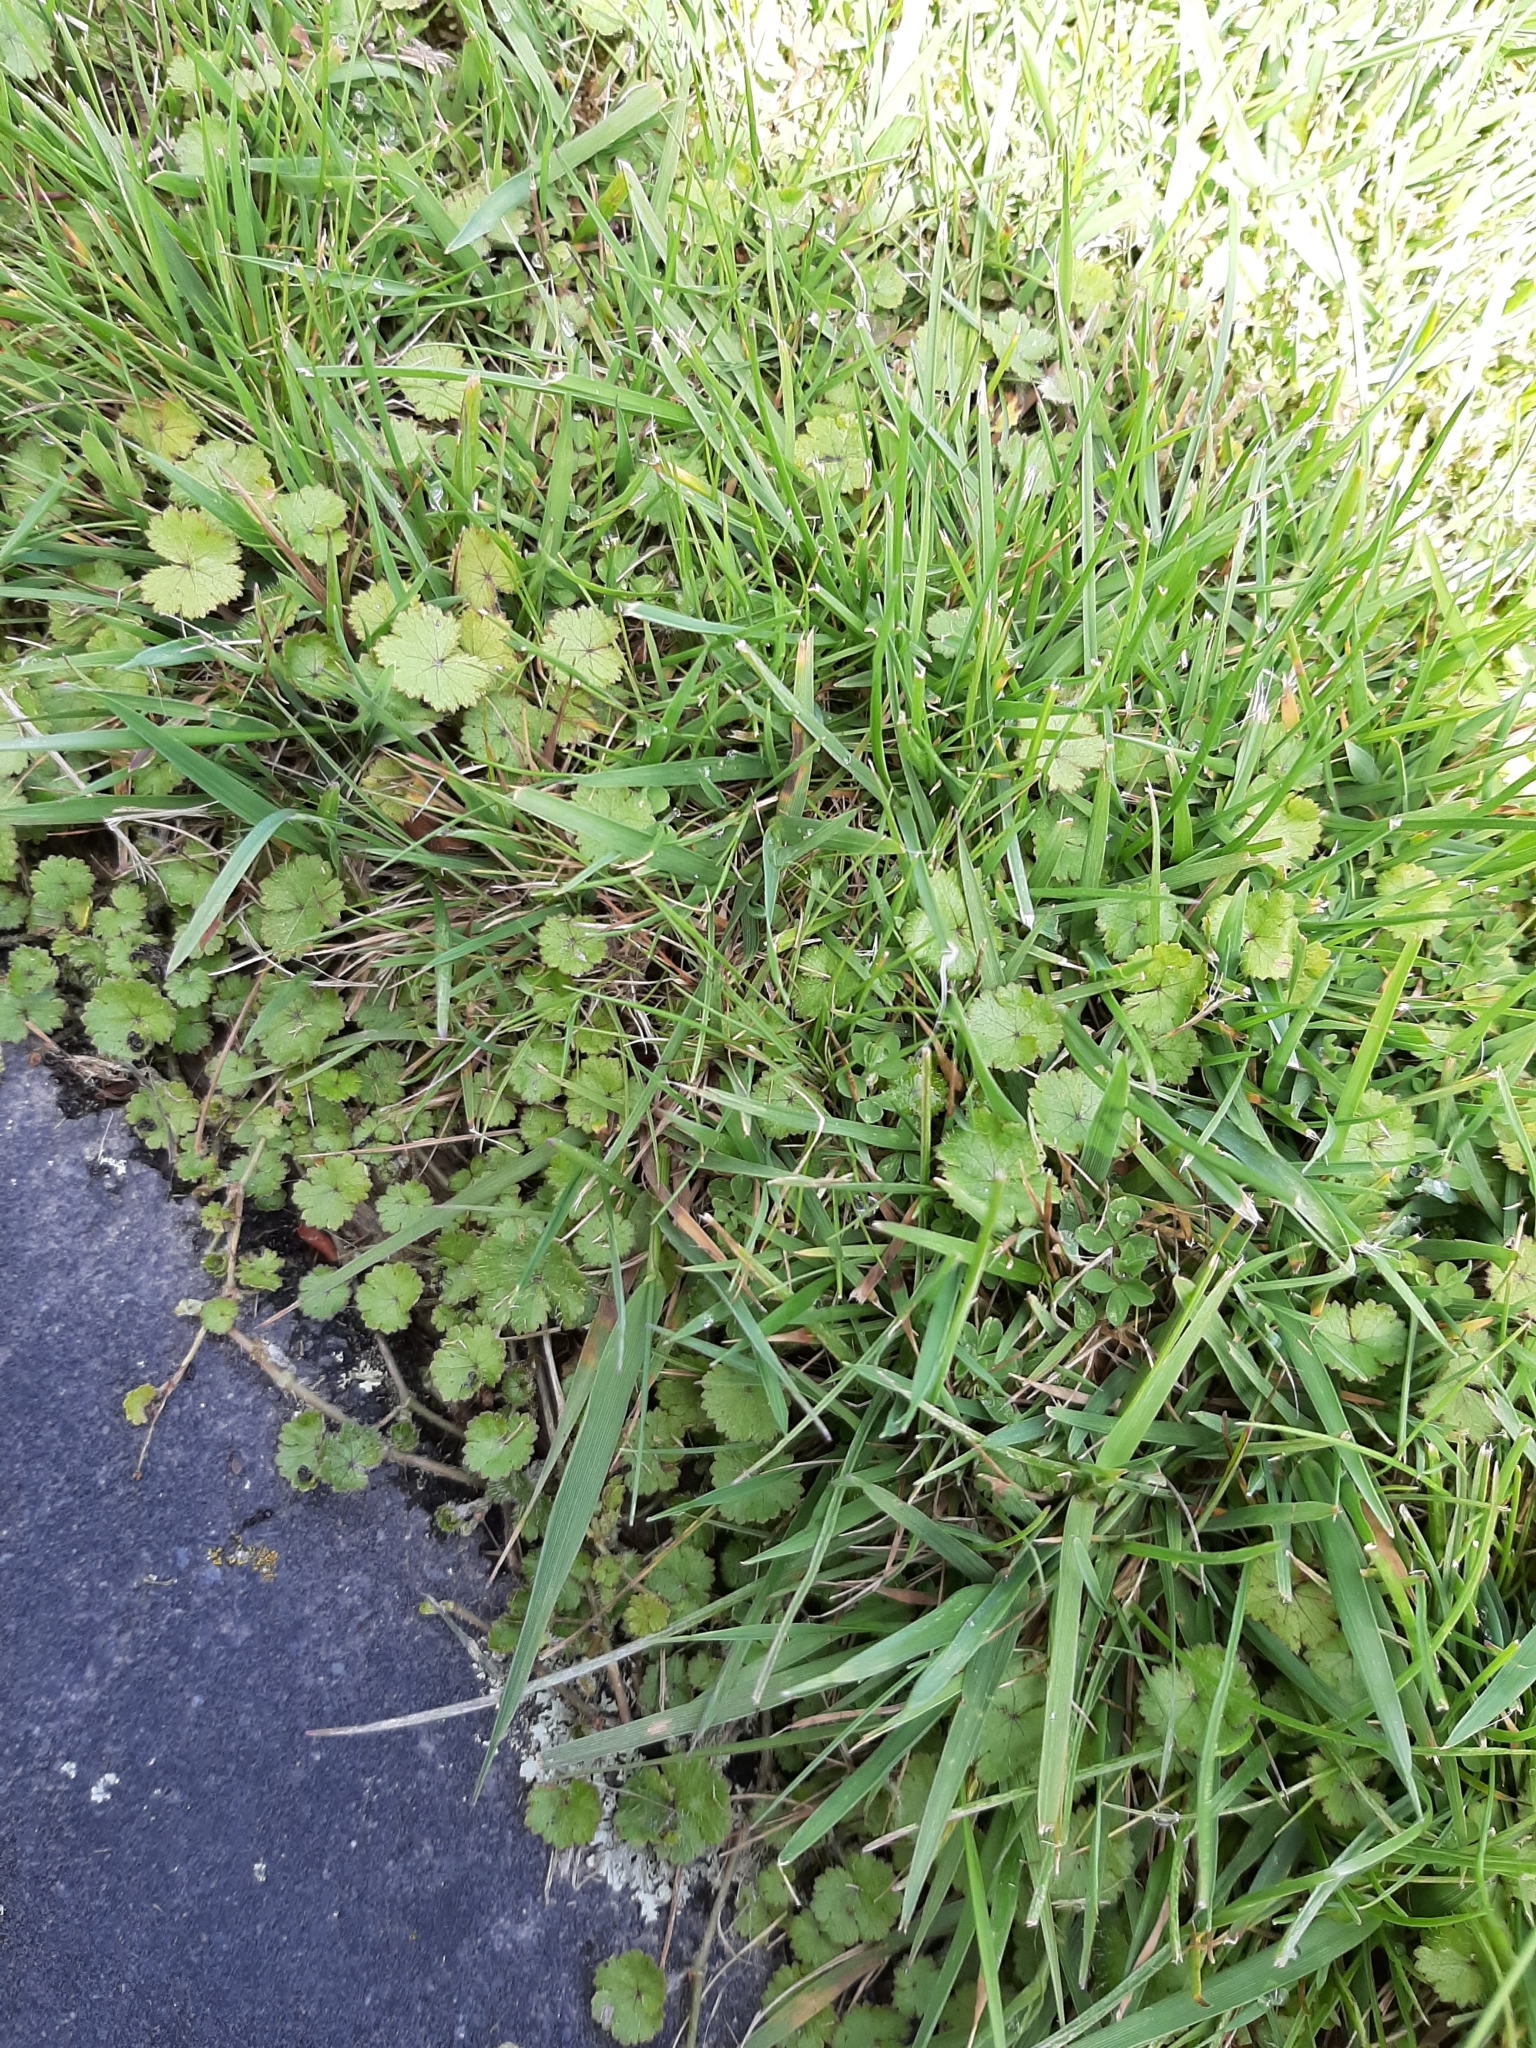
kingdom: Plantae
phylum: Tracheophyta
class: Magnoliopsida
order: Apiales
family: Araliaceae
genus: Hydrocotyle
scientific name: Hydrocotyle moschata
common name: Hairy pennywort
